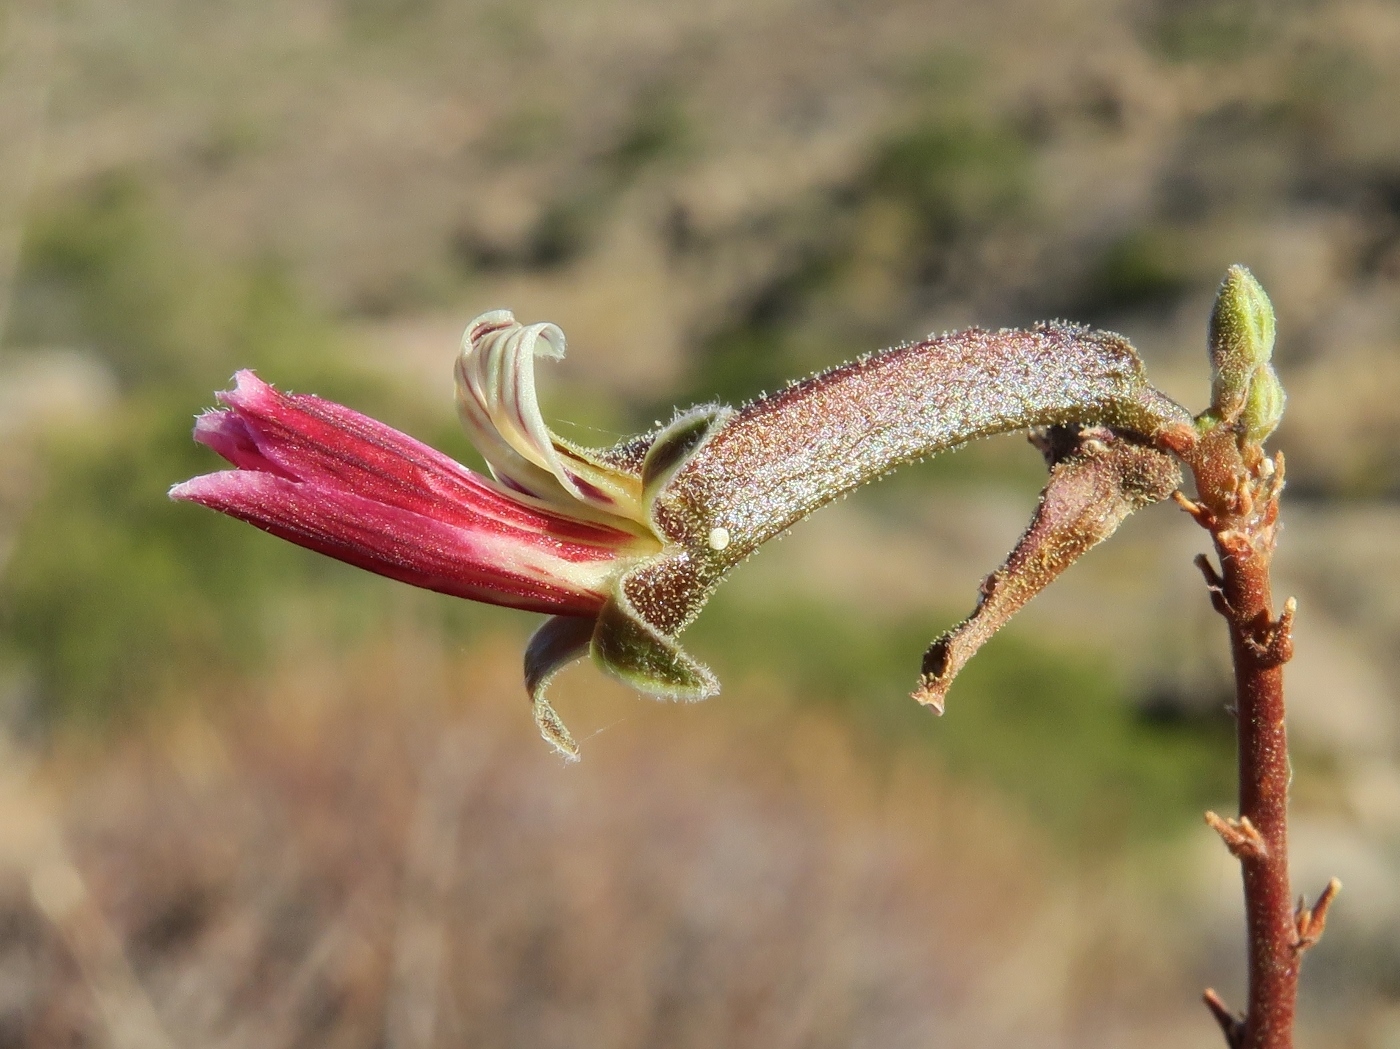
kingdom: Plantae
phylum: Tracheophyta
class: Magnoliopsida
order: Geraniales
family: Geraniaceae
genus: Pelargonium
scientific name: Pelargonium grandicalcaratum
